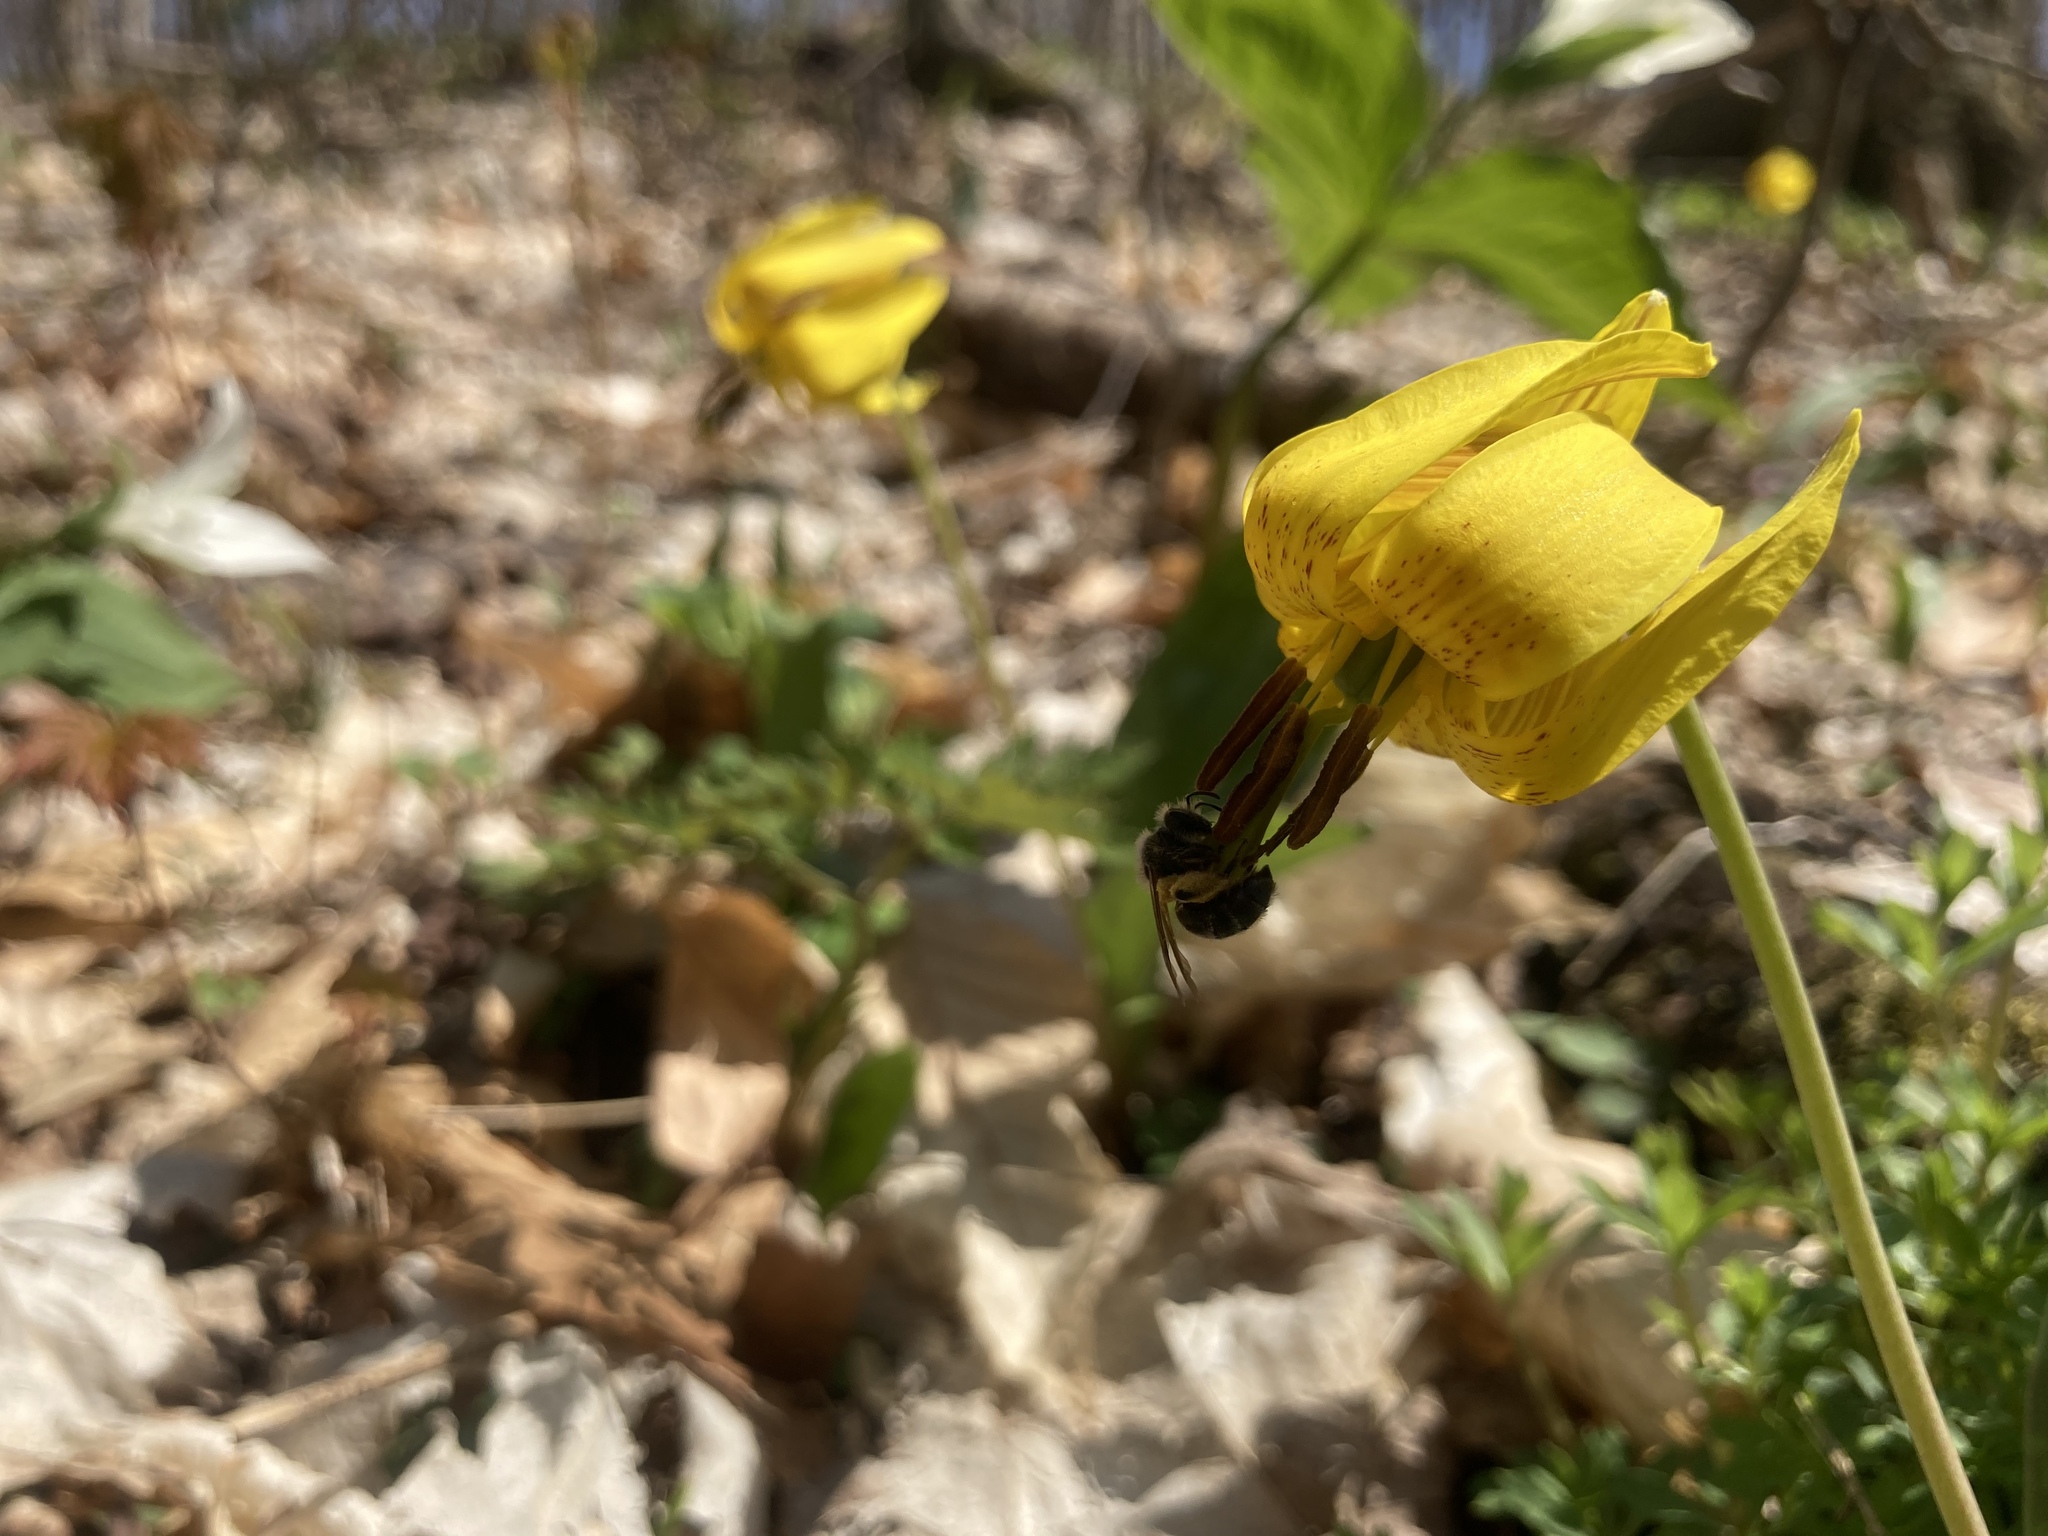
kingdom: Plantae
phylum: Tracheophyta
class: Liliopsida
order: Liliales
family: Liliaceae
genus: Erythronium
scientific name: Erythronium americanum
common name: Yellow adder's-tongue
